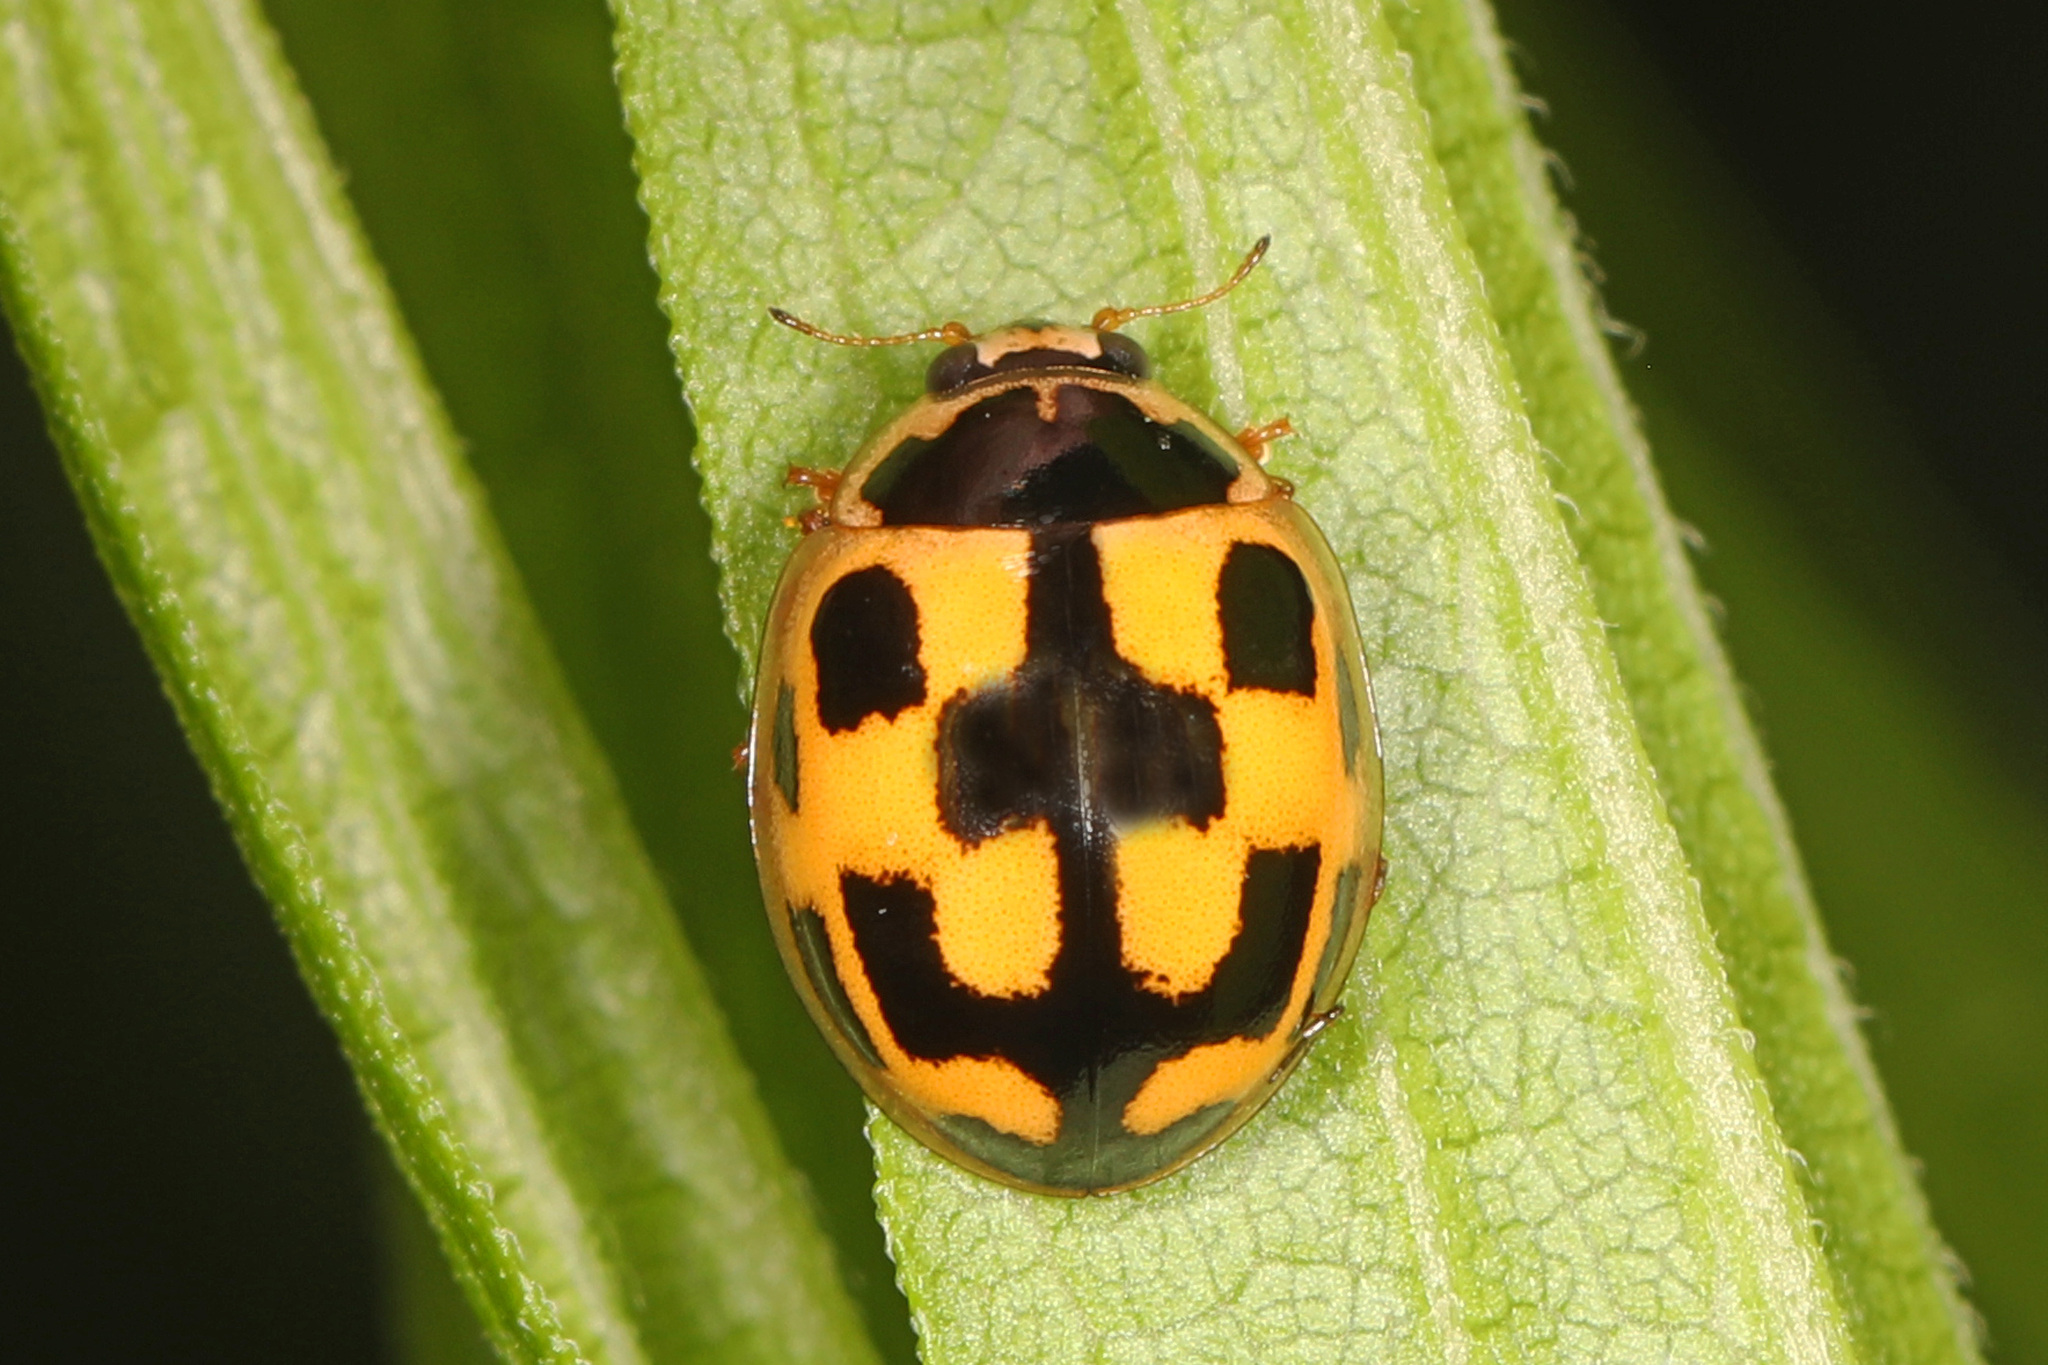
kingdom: Animalia
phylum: Arthropoda
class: Insecta
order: Coleoptera
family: Coccinellidae
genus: Propylaea
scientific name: Propylaea quatuordecimpunctata
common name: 14-spotted ladybird beetle
